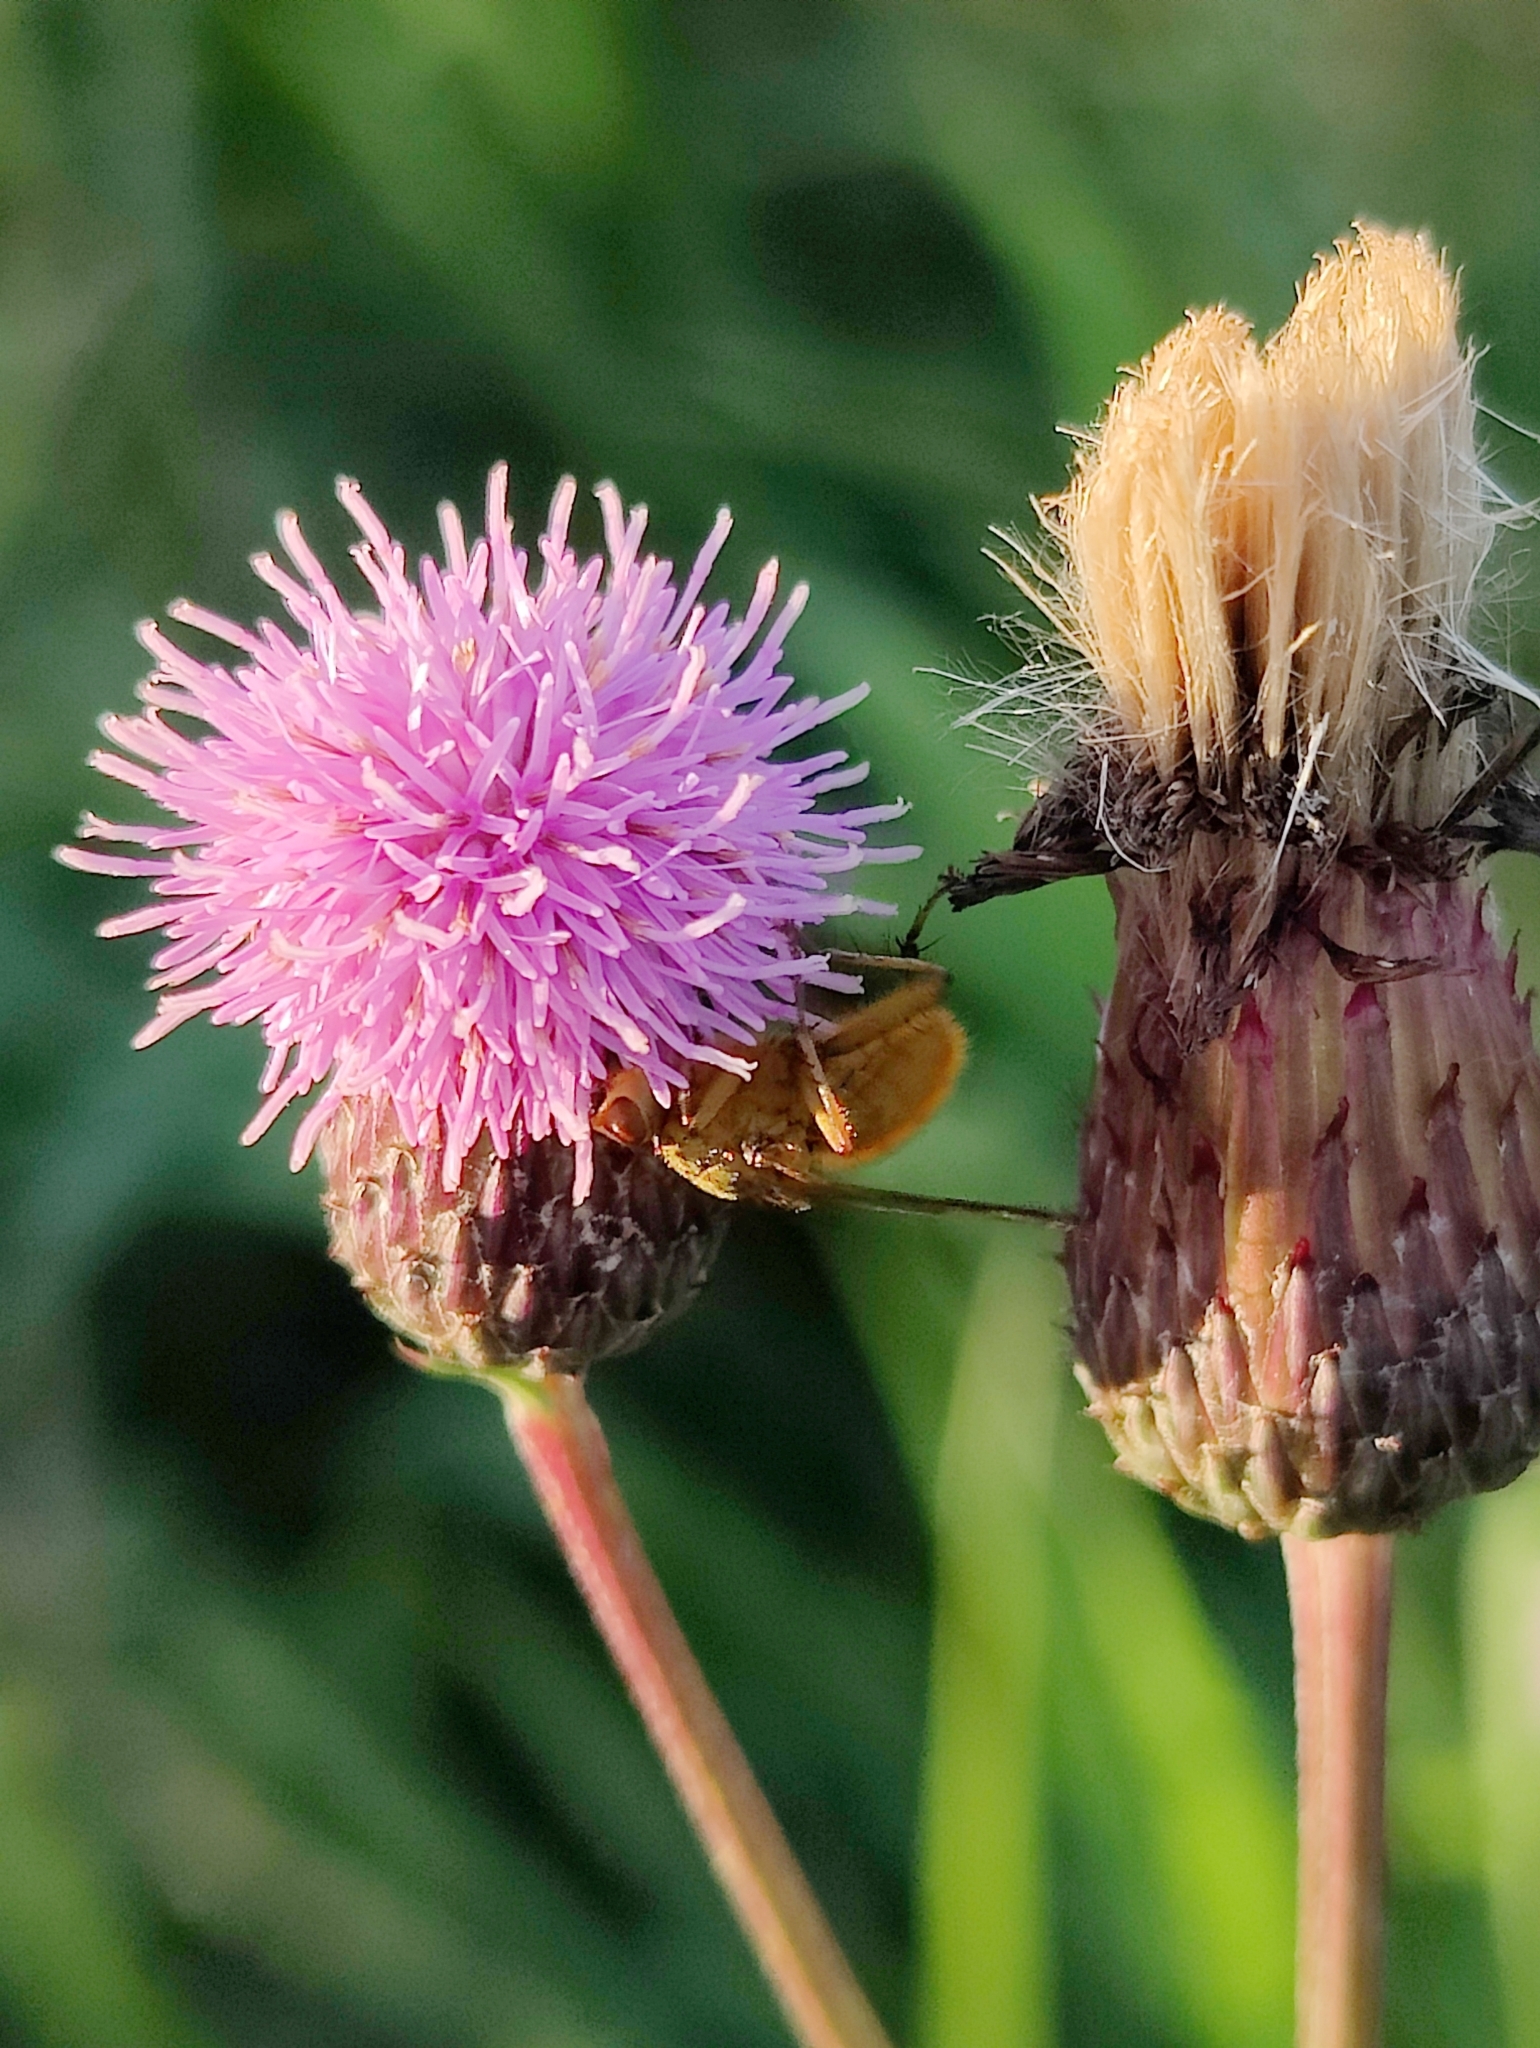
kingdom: Animalia
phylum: Arthropoda
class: Insecta
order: Diptera
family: Scathophagidae
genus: Scathophaga
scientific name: Scathophaga stercoraria
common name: Yellow dung fly
